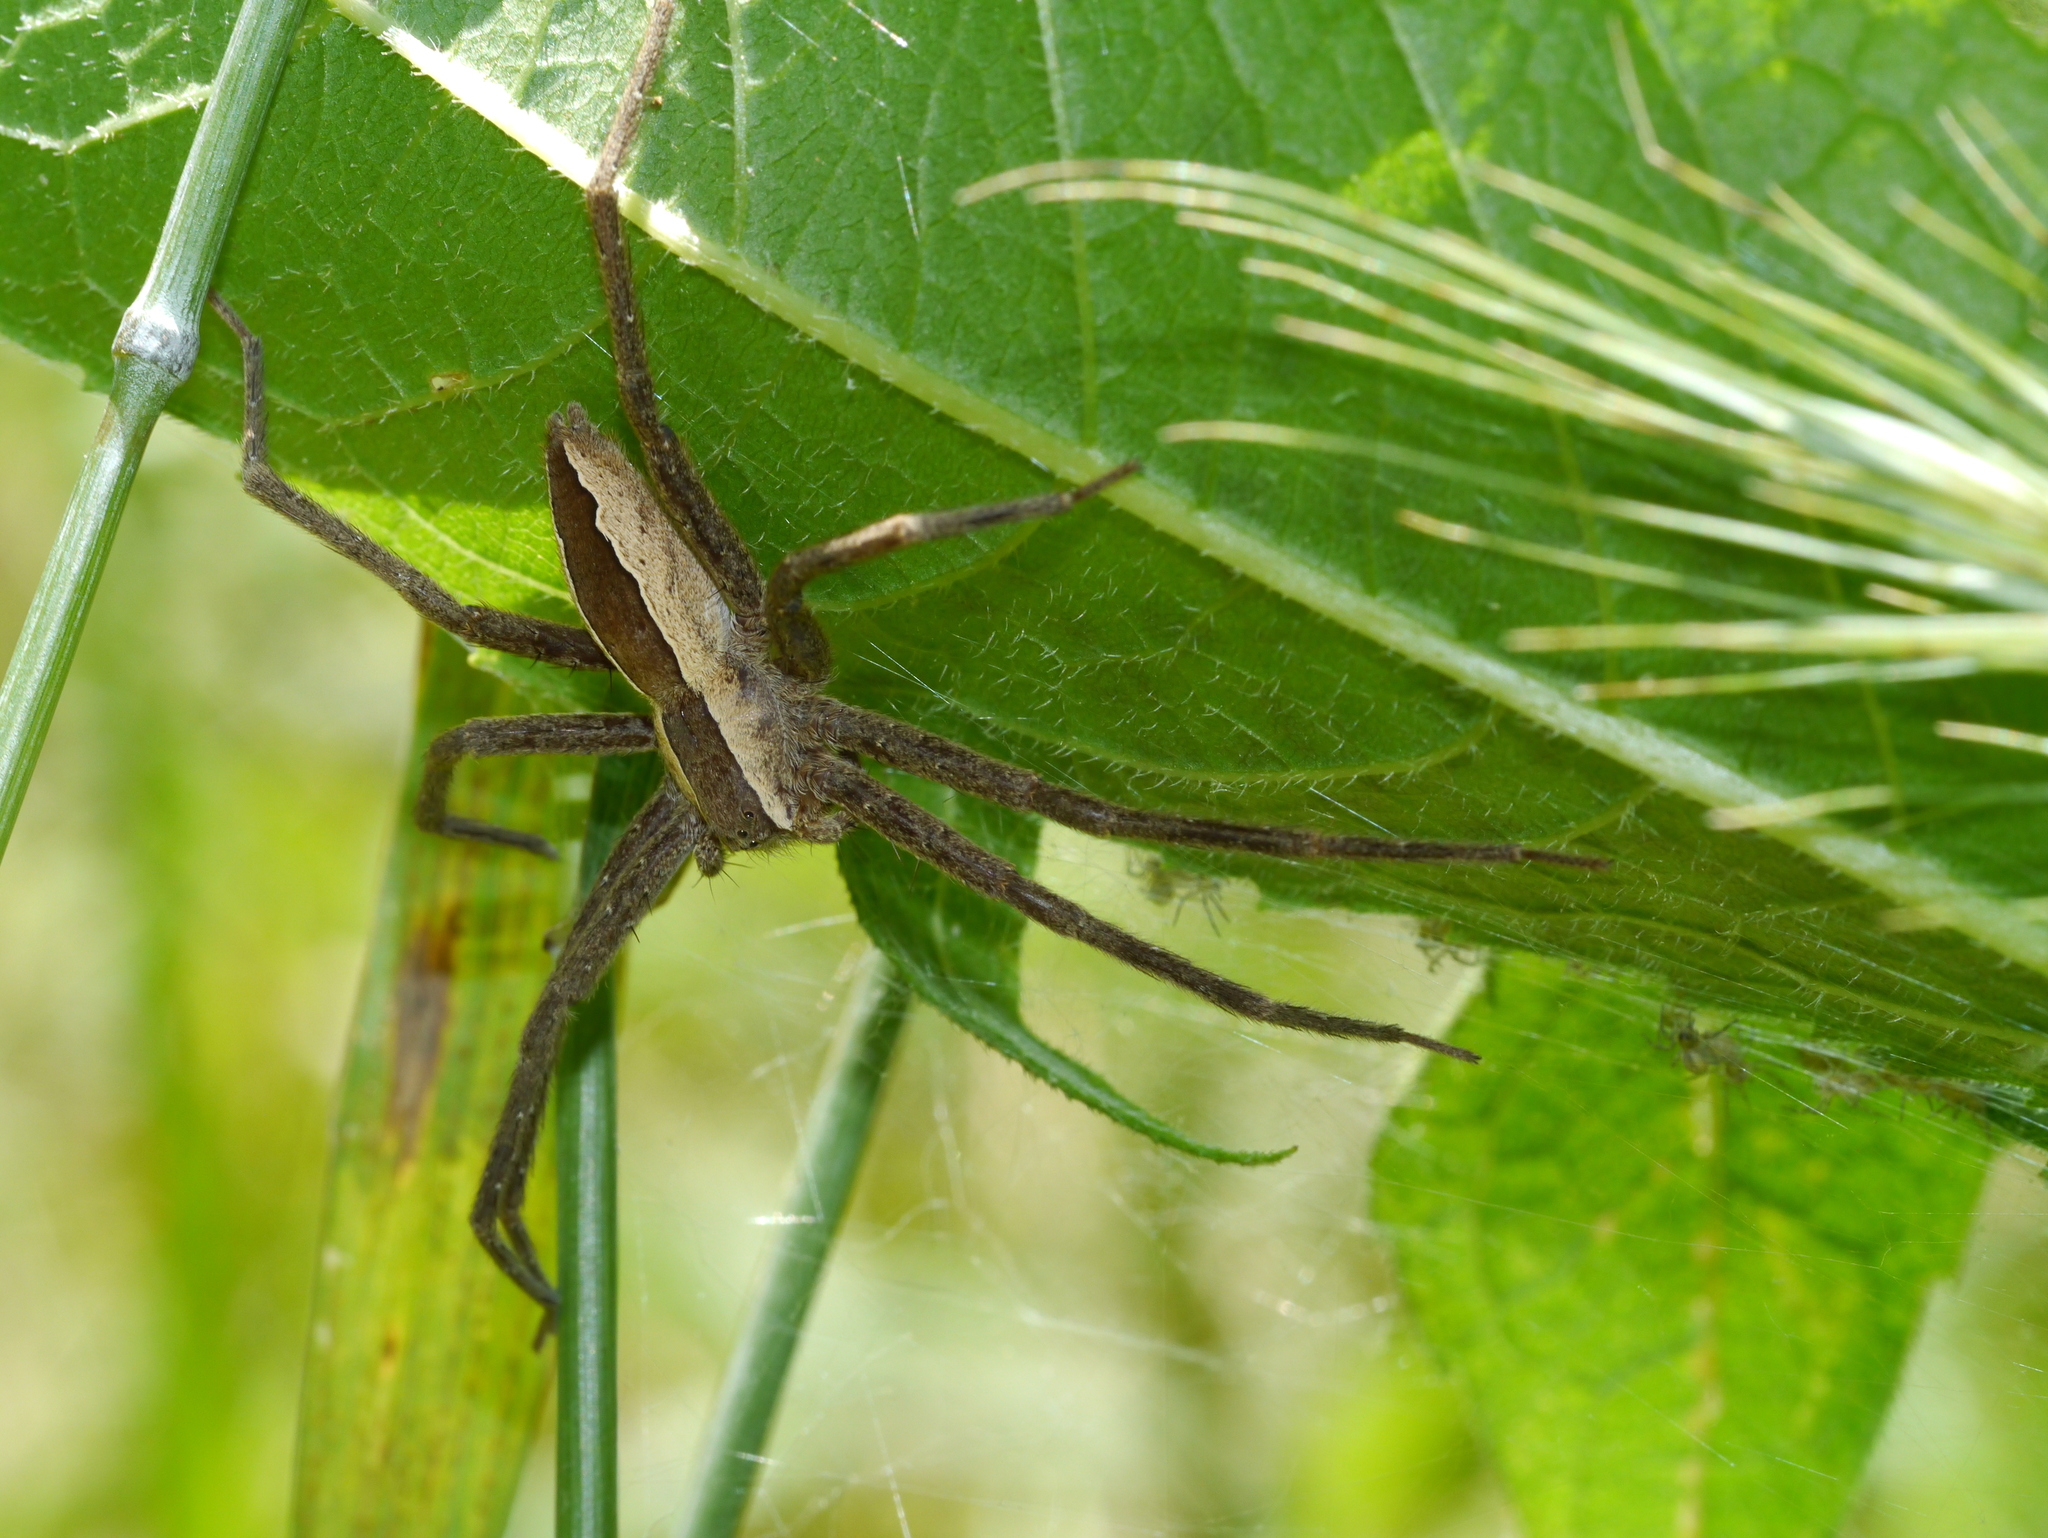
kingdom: Animalia
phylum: Arthropoda
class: Arachnida
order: Araneae
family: Pisauridae
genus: Pisaurina
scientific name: Pisaurina mira
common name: American nursery web spider
